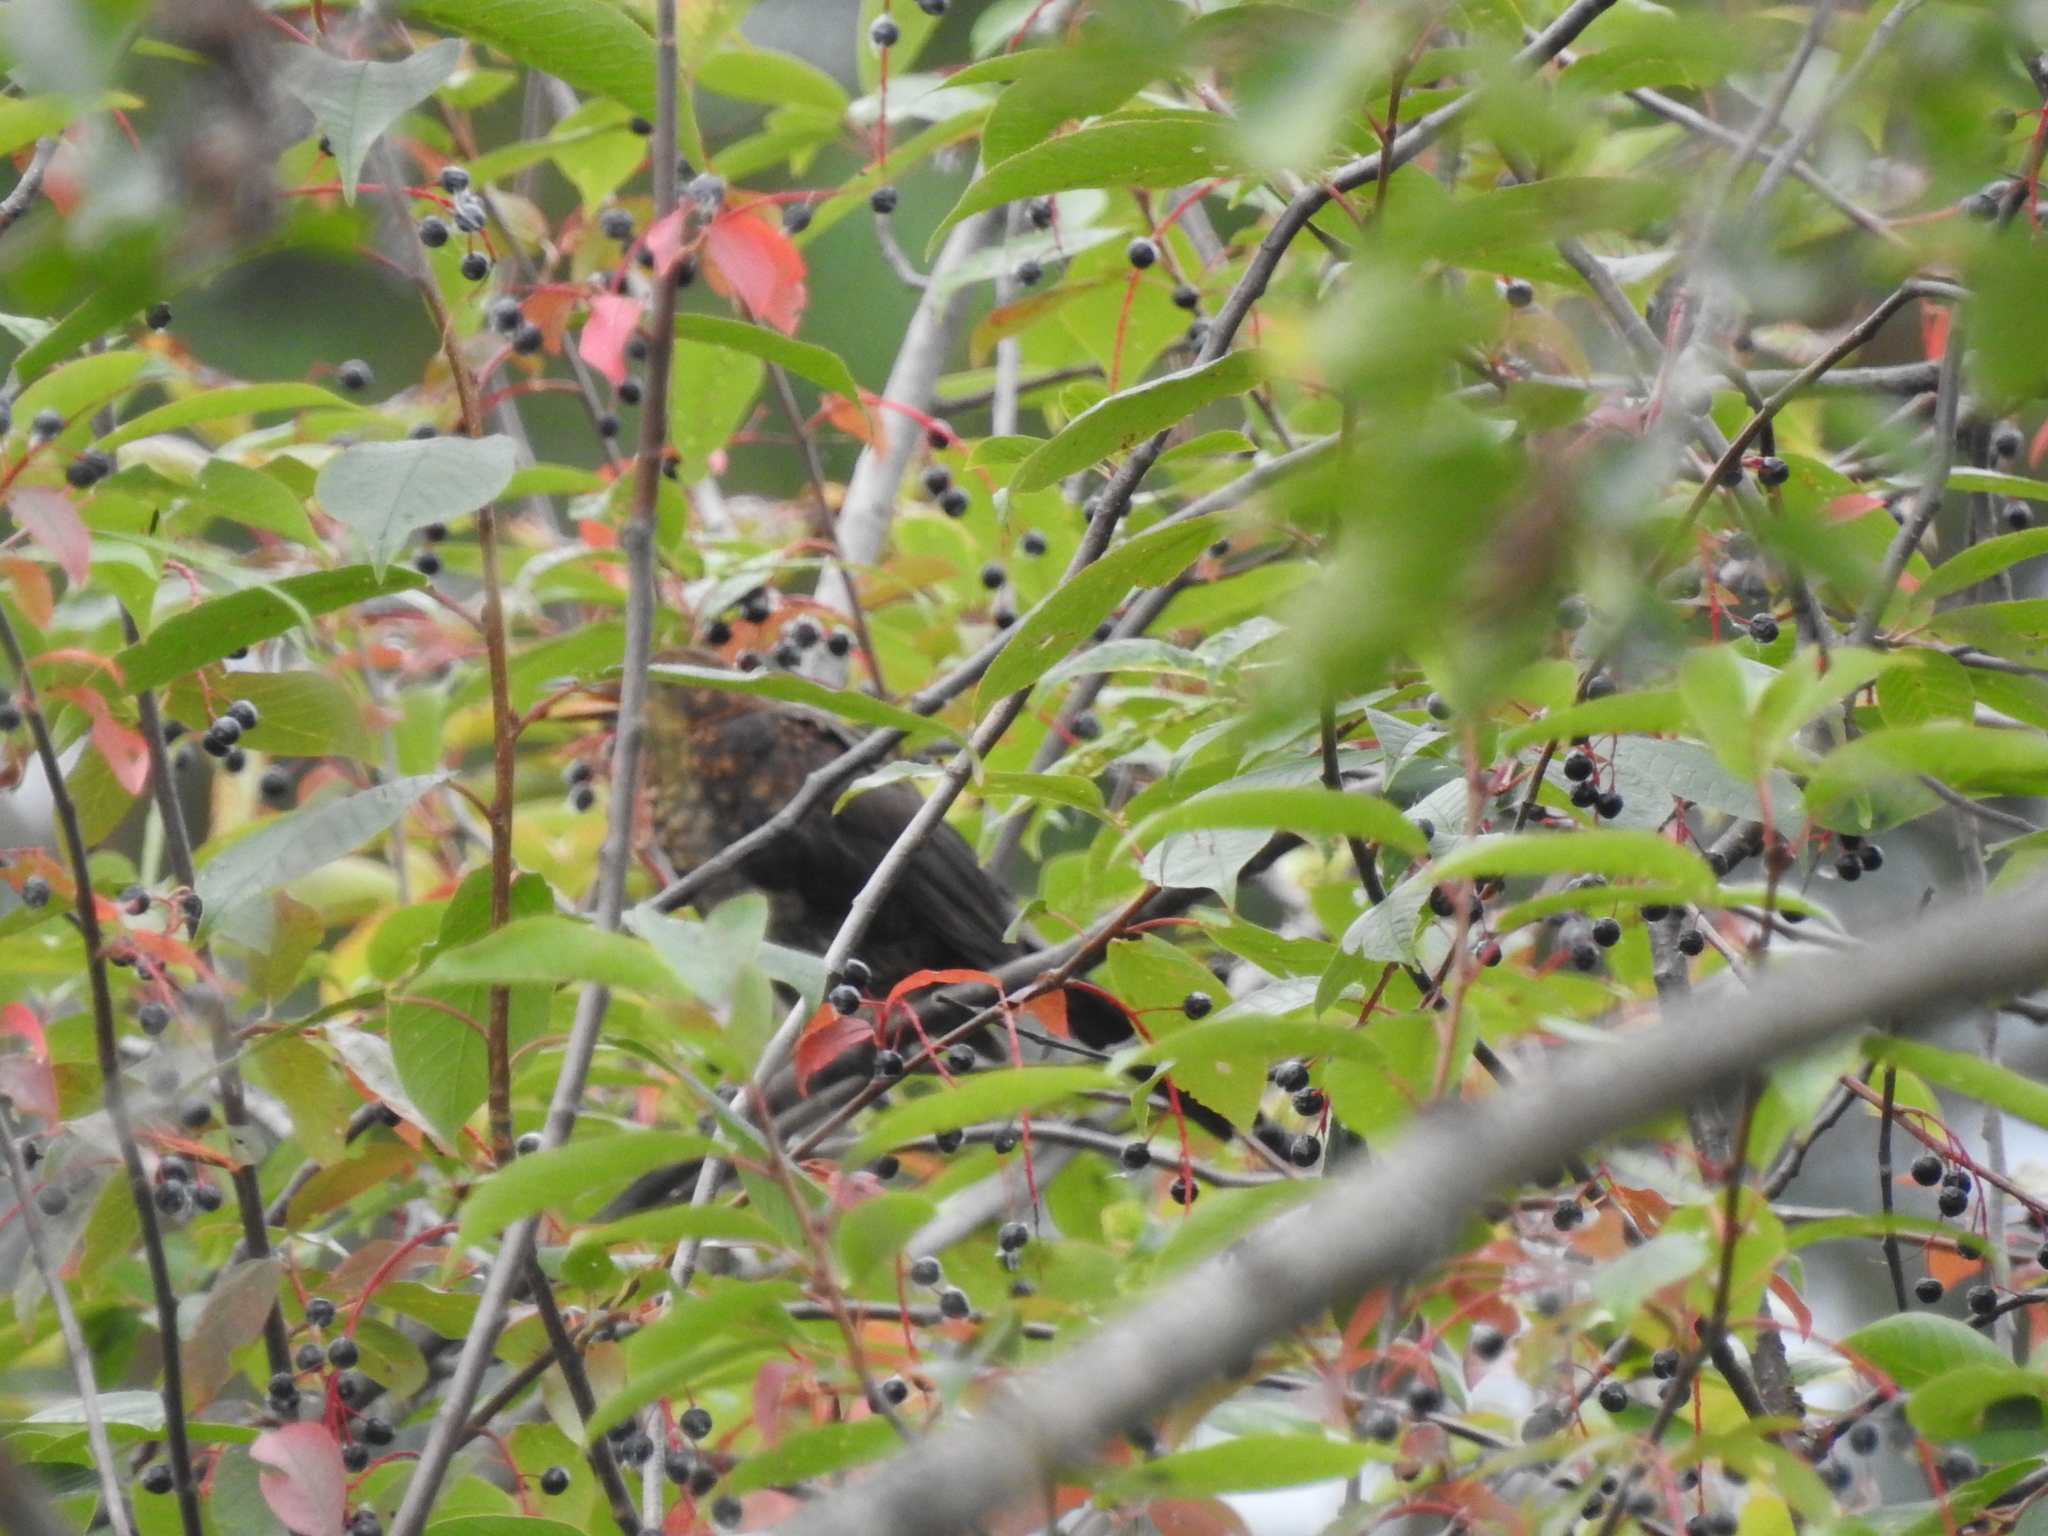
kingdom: Animalia
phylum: Chordata
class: Aves
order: Passeriformes
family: Turdidae
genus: Turdus
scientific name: Turdus merula
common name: Common blackbird
